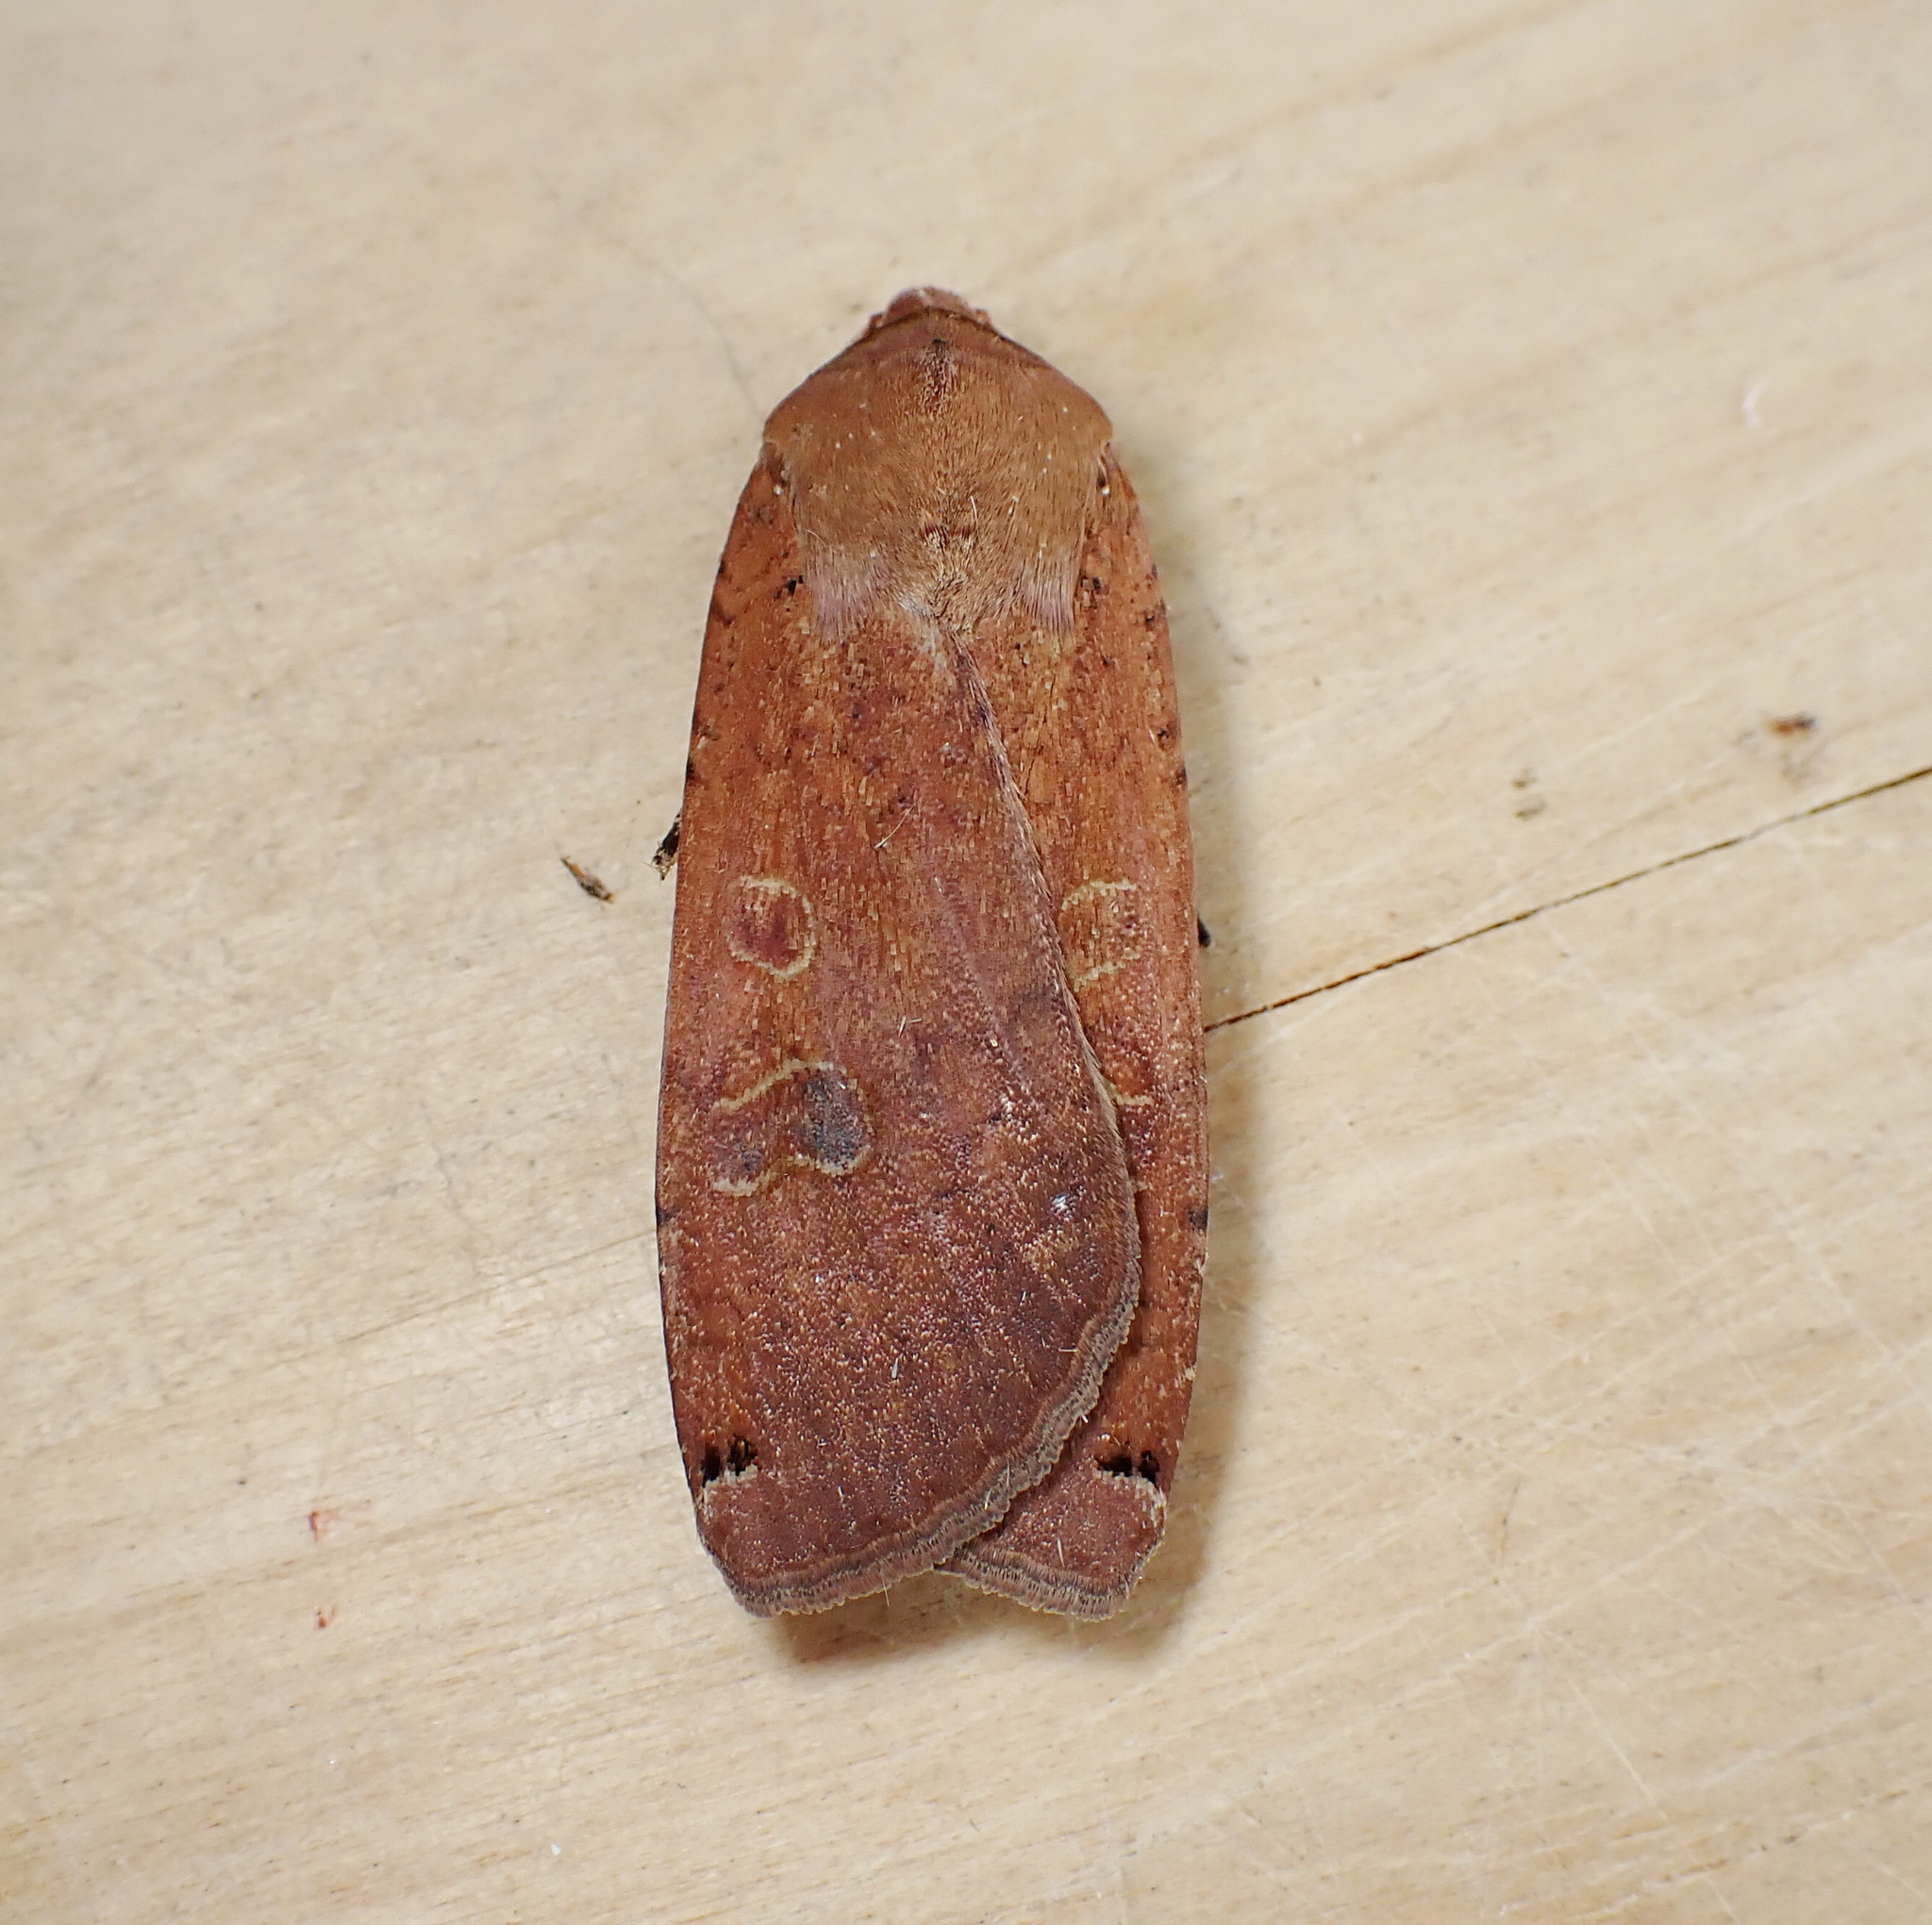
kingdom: Animalia
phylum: Arthropoda
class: Insecta
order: Lepidoptera
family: Noctuidae
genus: Noctua
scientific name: Noctua pronuba
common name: Large yellow underwing
